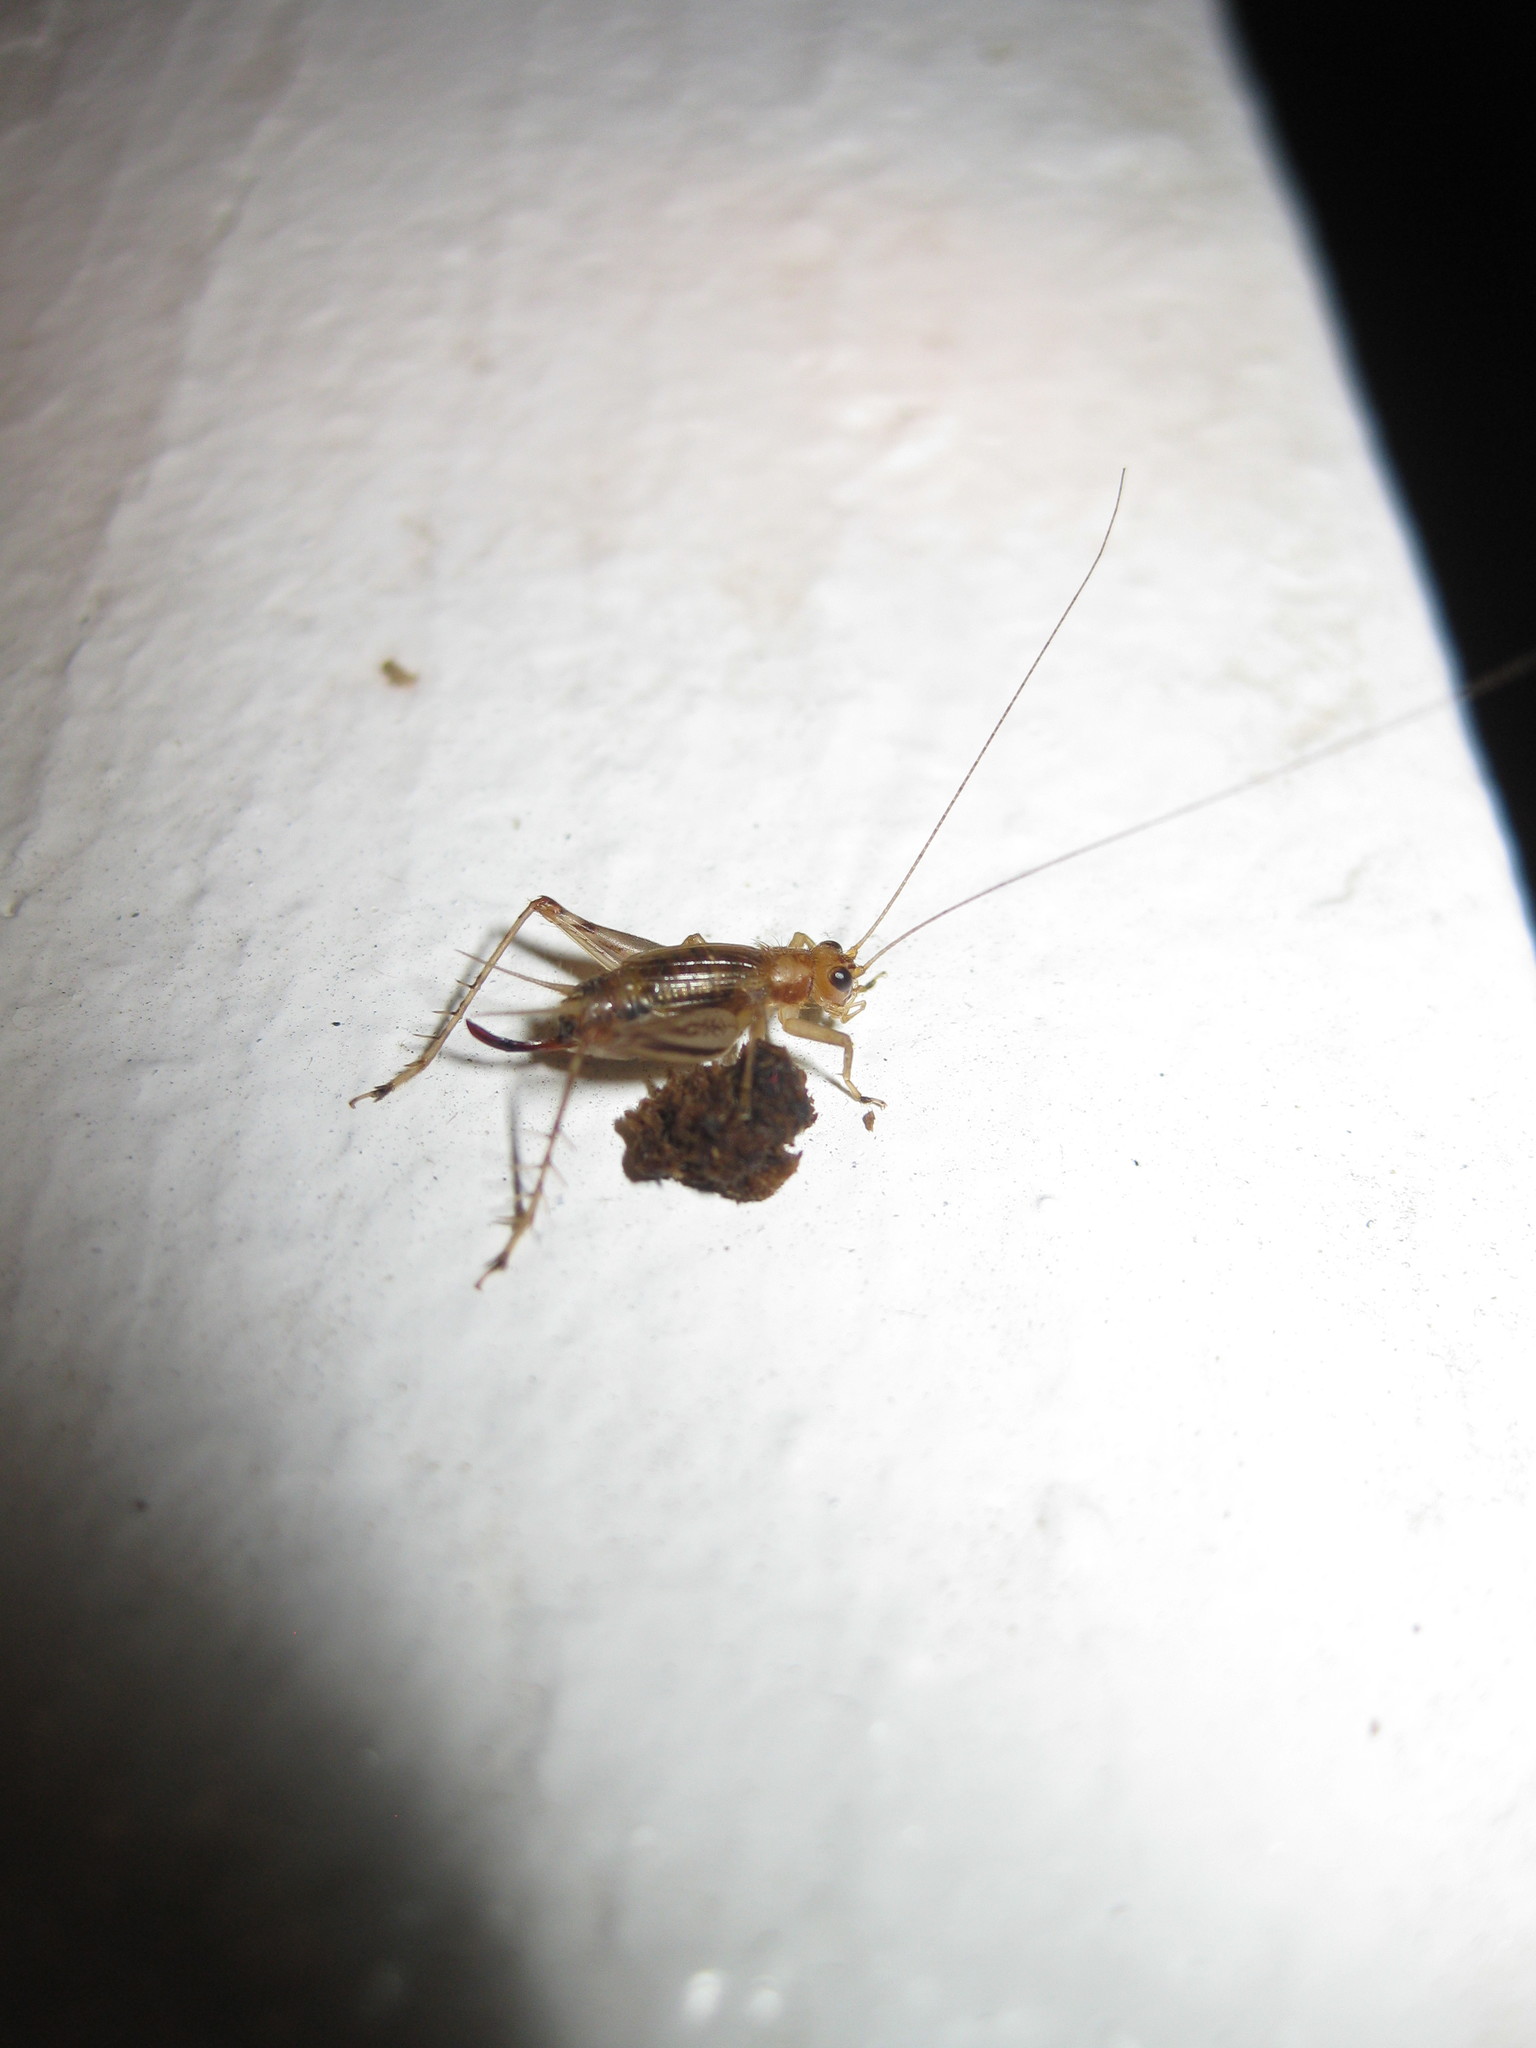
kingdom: Animalia
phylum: Arthropoda
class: Insecta
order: Orthoptera
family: Trigonidiidae
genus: Anaxipha
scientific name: Anaxipha exigua
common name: Say's bush cricket
